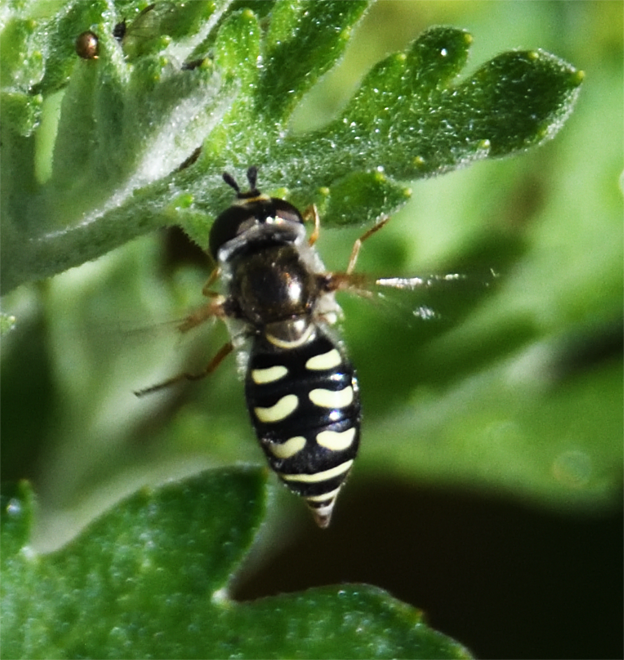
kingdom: Animalia
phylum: Arthropoda
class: Insecta
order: Diptera
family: Syrphidae
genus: Eupeodes
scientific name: Eupeodes volucris
